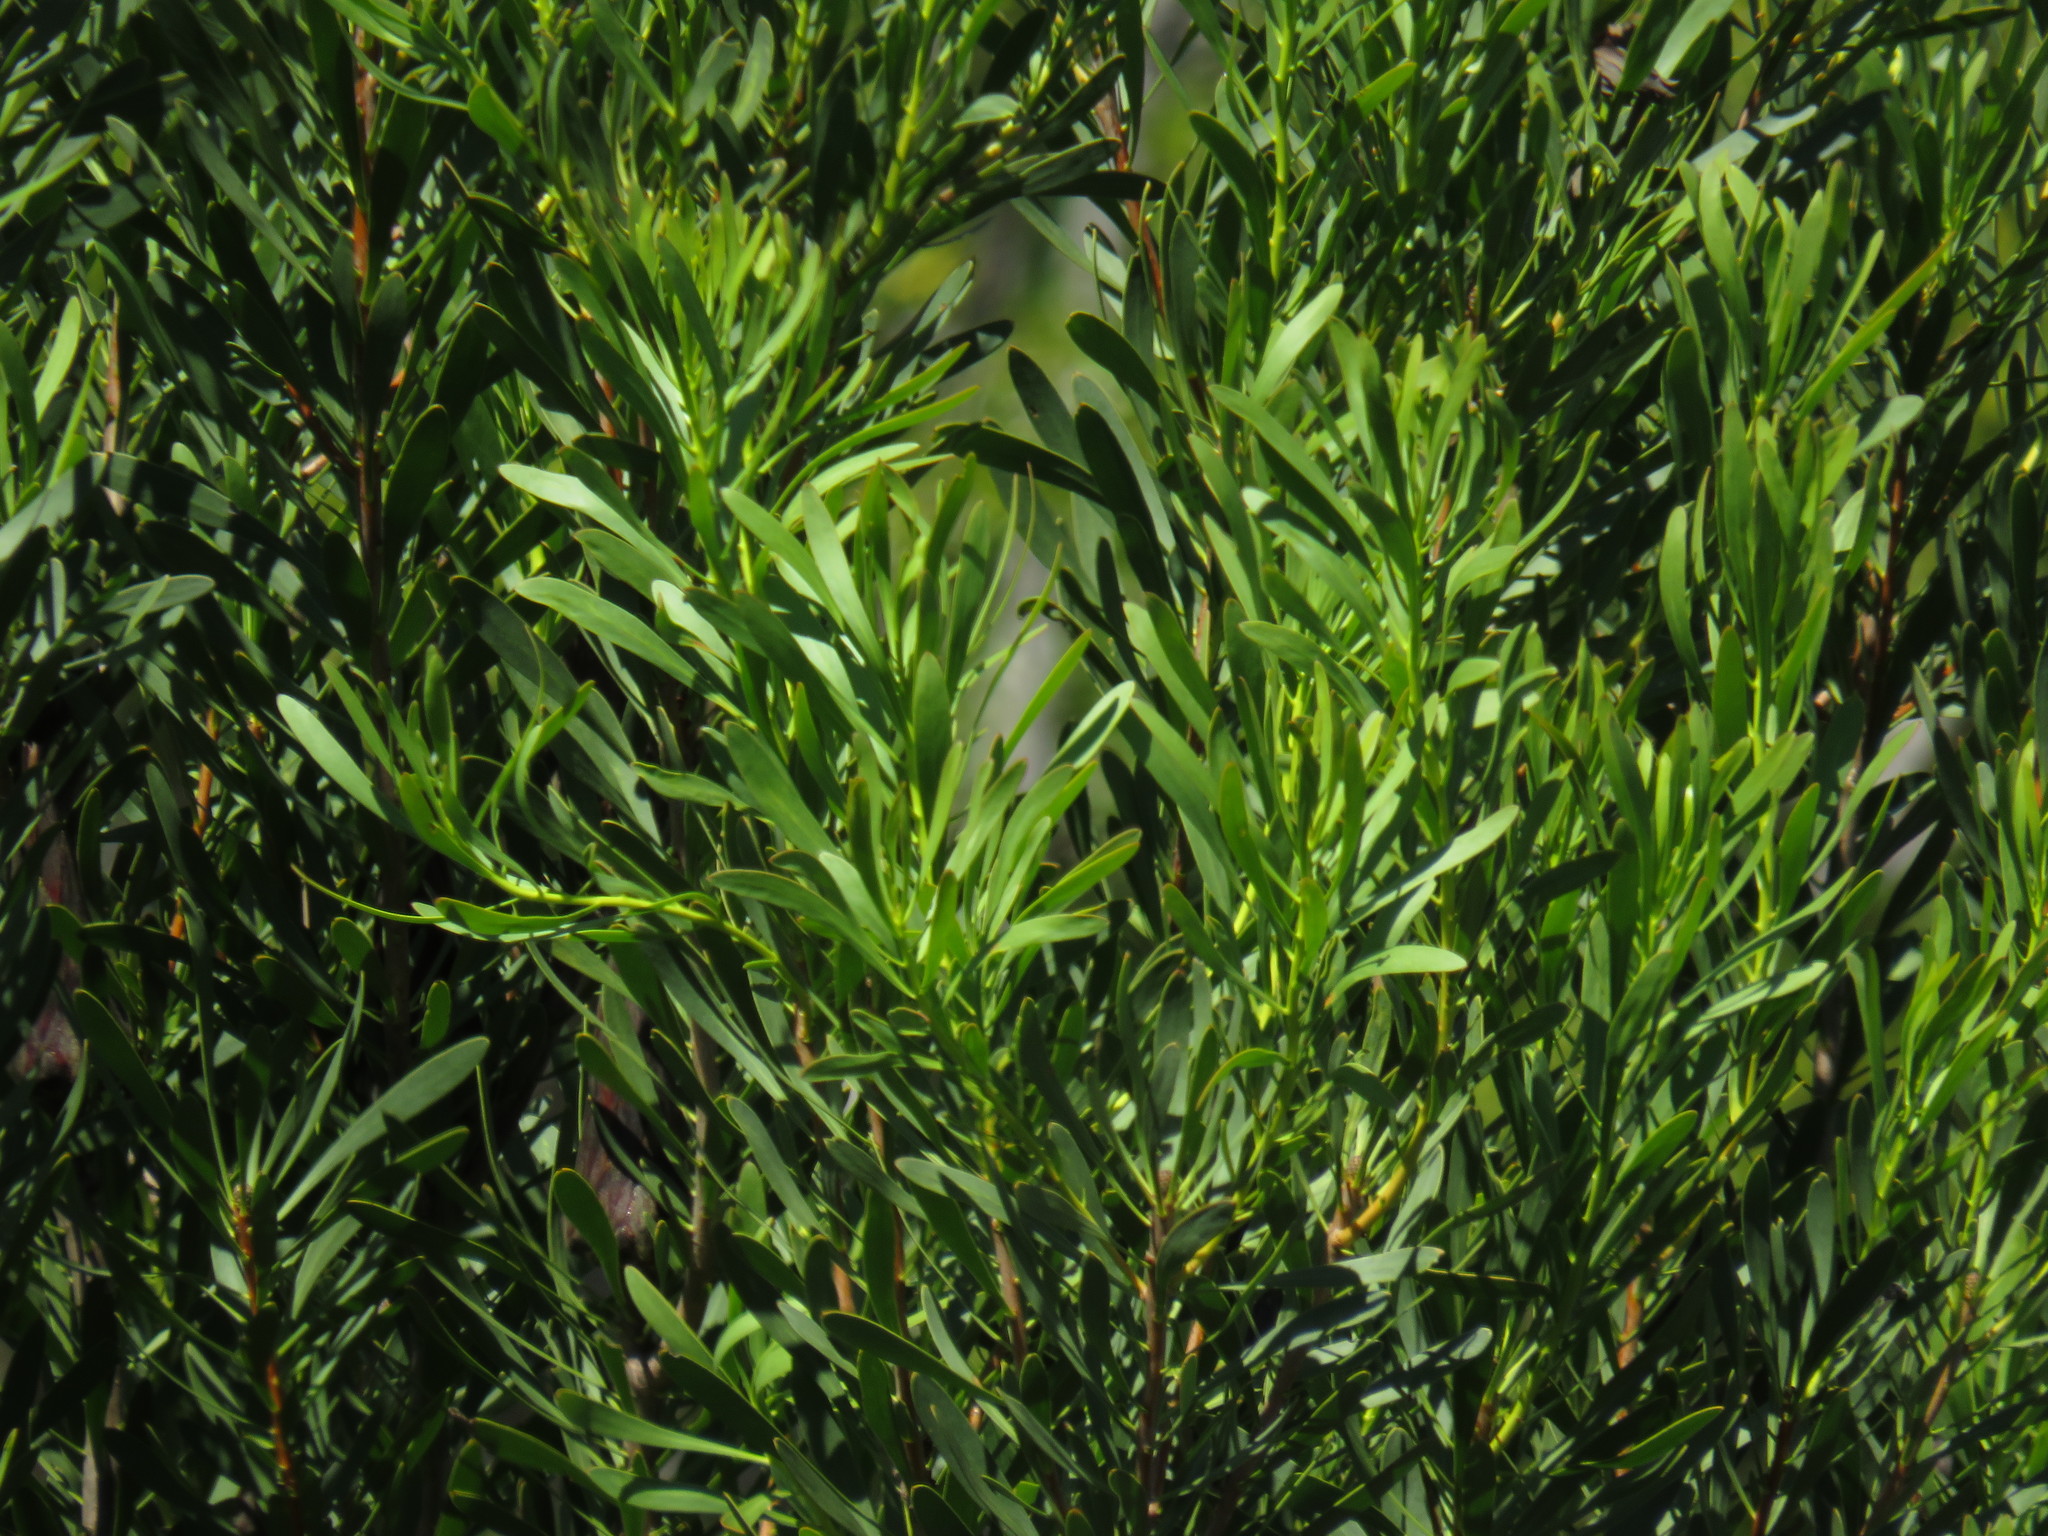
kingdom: Plantae
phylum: Tracheophyta
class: Magnoliopsida
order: Proteales
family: Proteaceae
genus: Protea
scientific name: Protea repens
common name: Sugarbush
